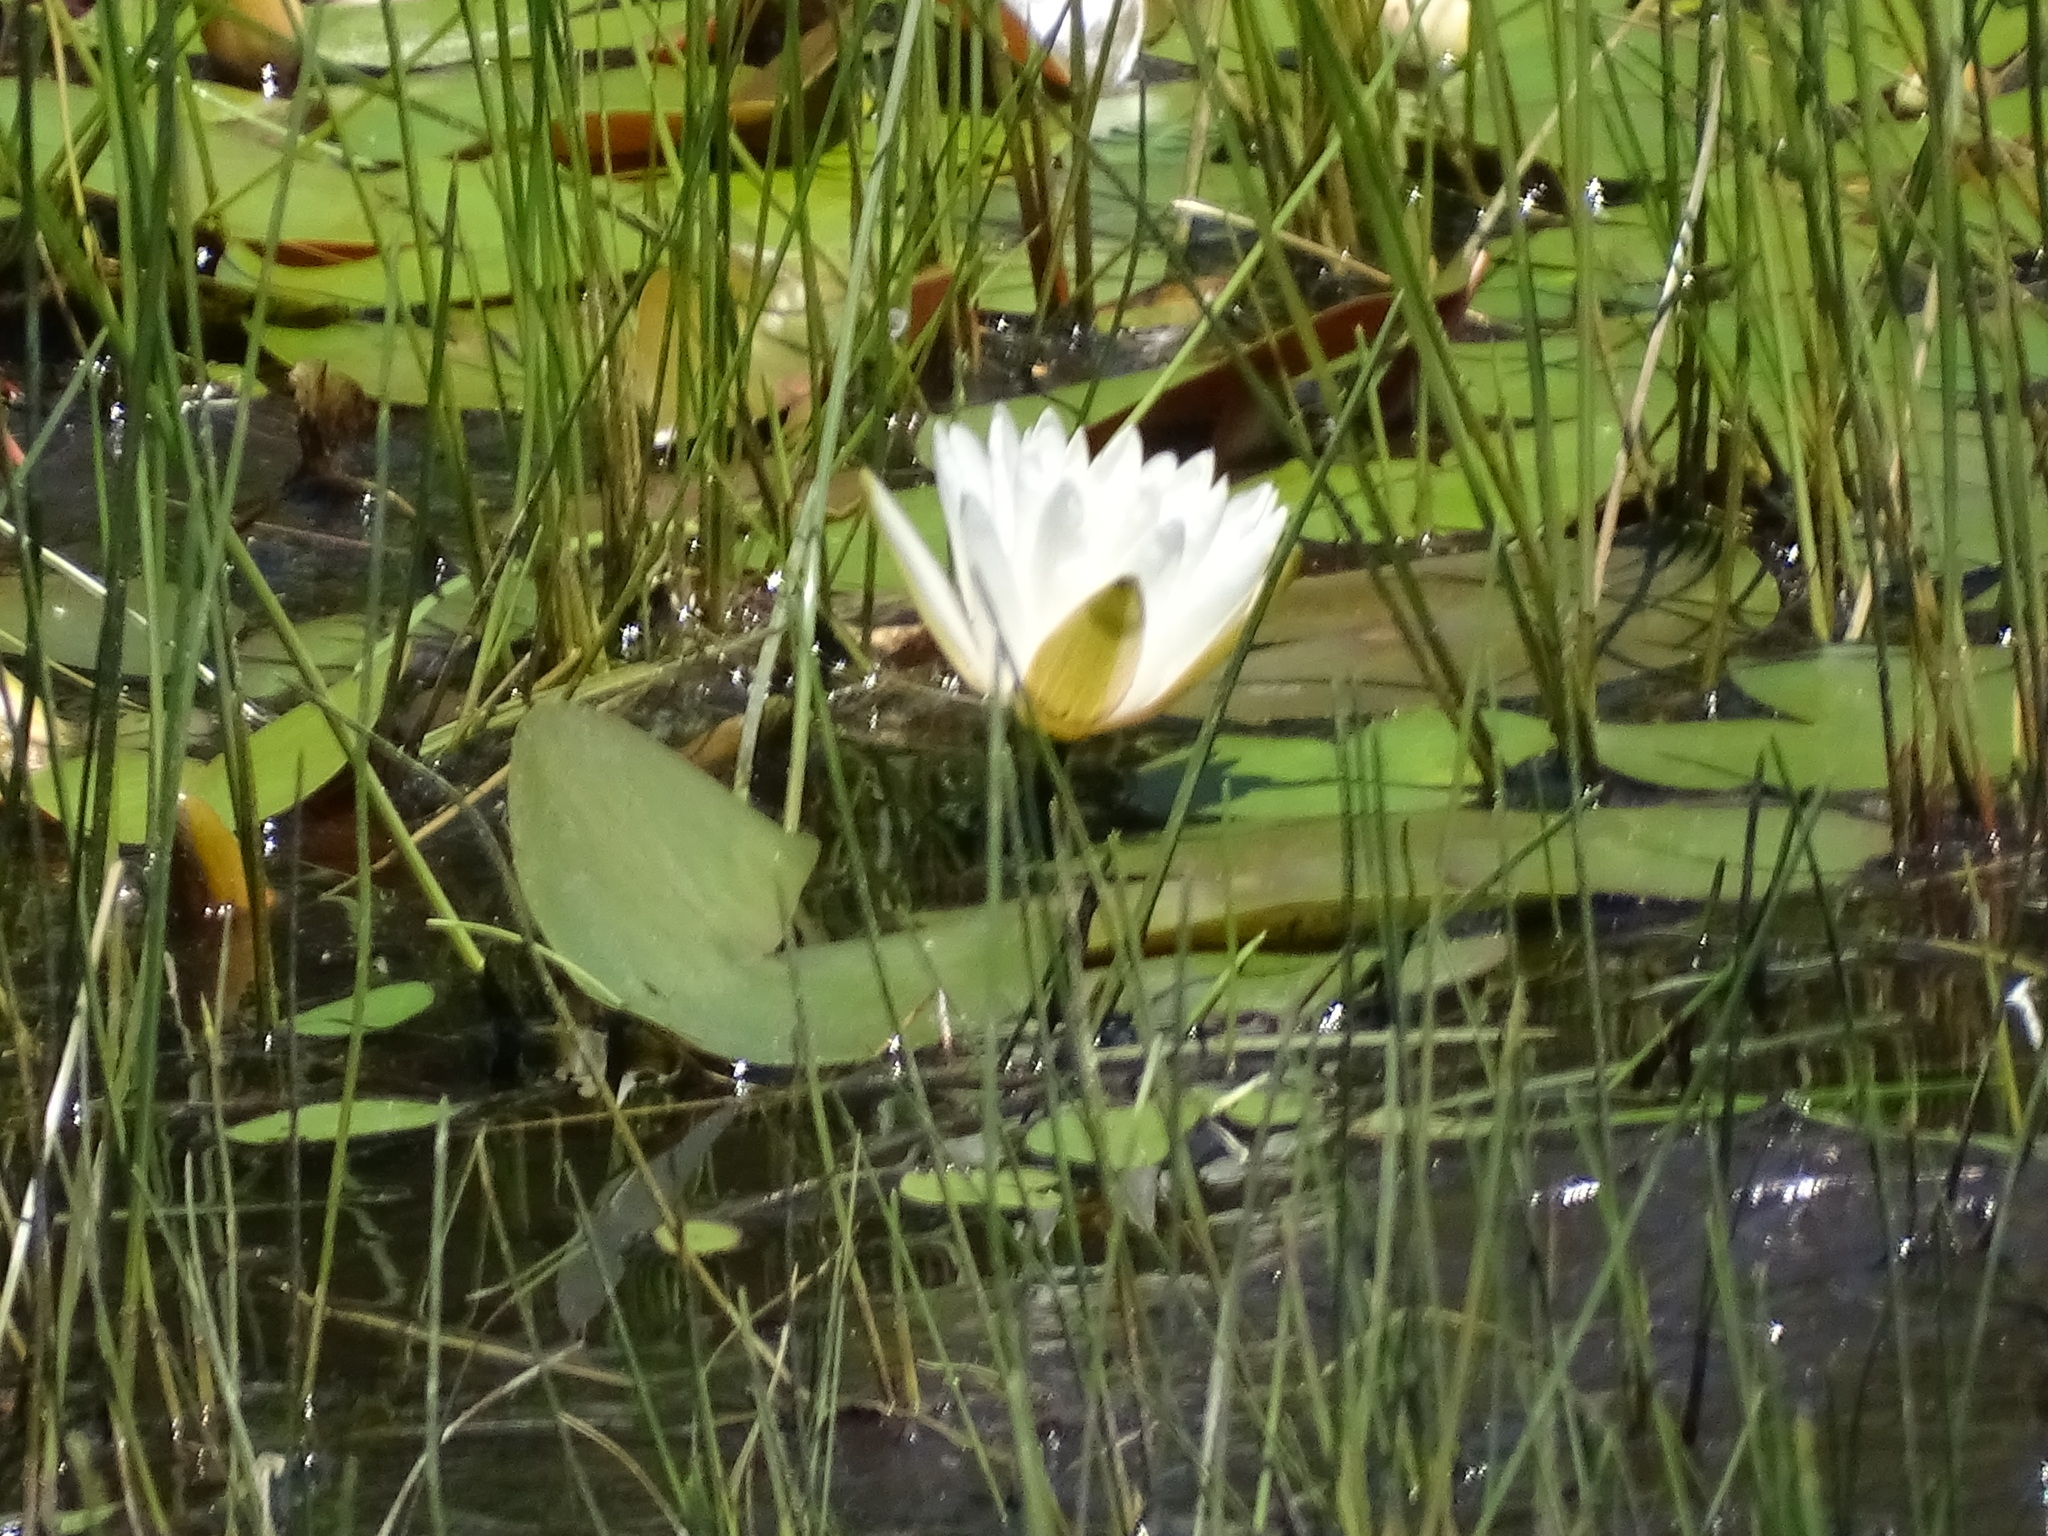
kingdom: Plantae
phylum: Tracheophyta
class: Magnoliopsida
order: Nymphaeales
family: Nymphaeaceae
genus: Nymphaea
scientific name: Nymphaea odorata
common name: Fragrant water-lily
